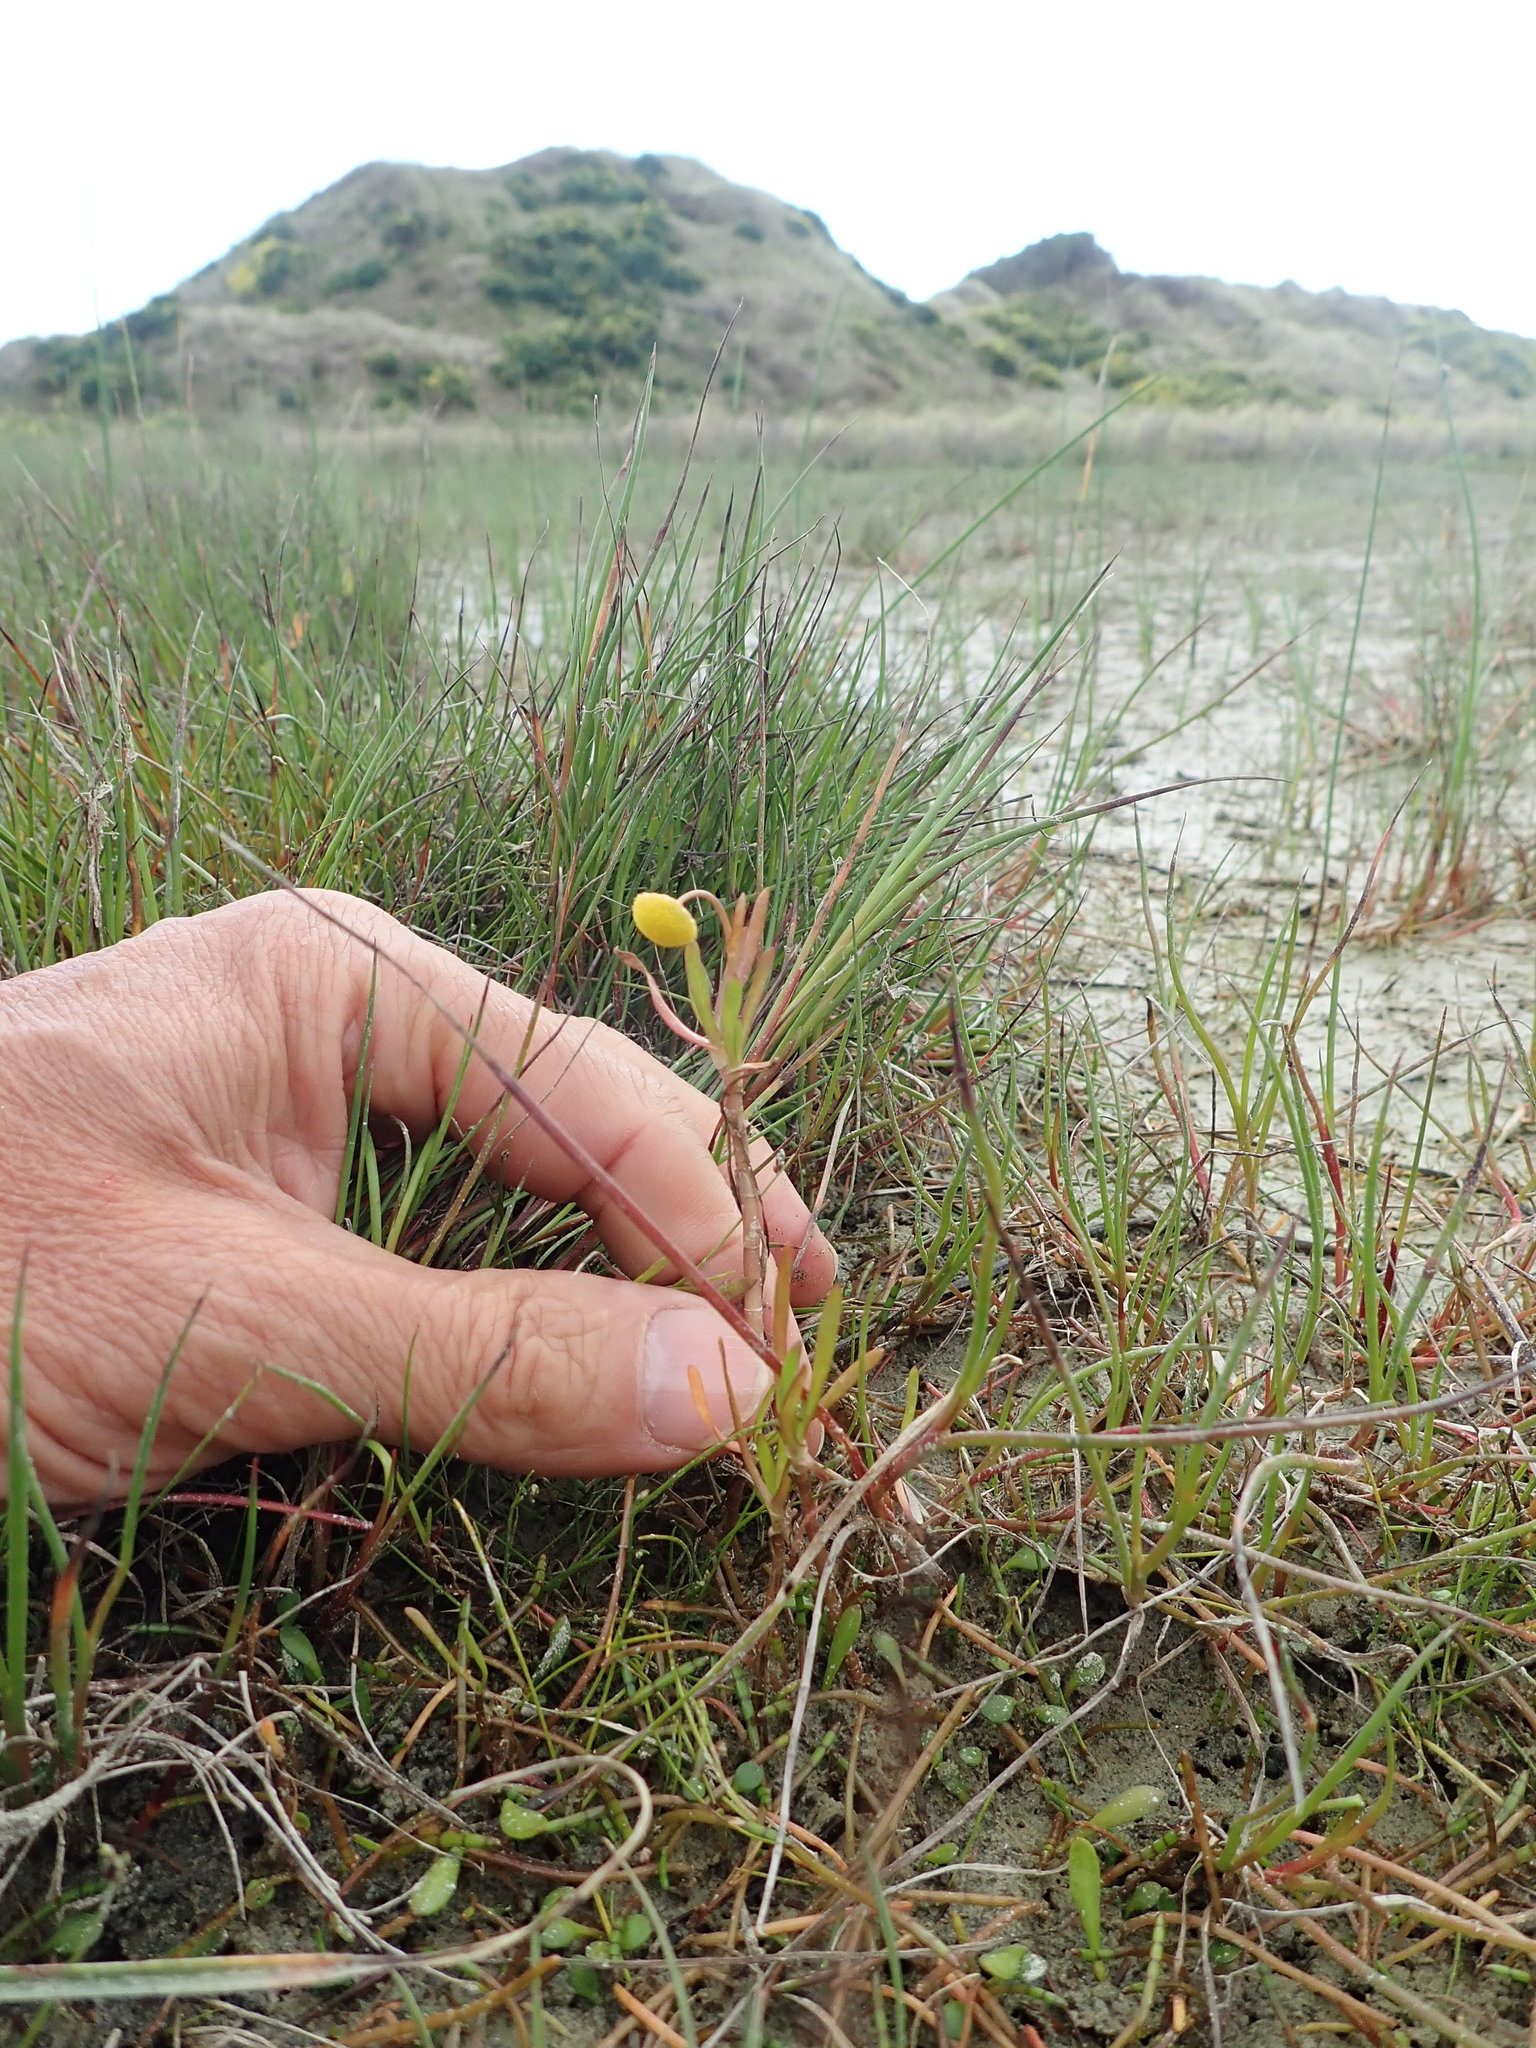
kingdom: Plantae
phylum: Tracheophyta
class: Magnoliopsida
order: Asterales
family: Asteraceae
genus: Cotula
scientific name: Cotula coronopifolia
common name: Buttonweed
